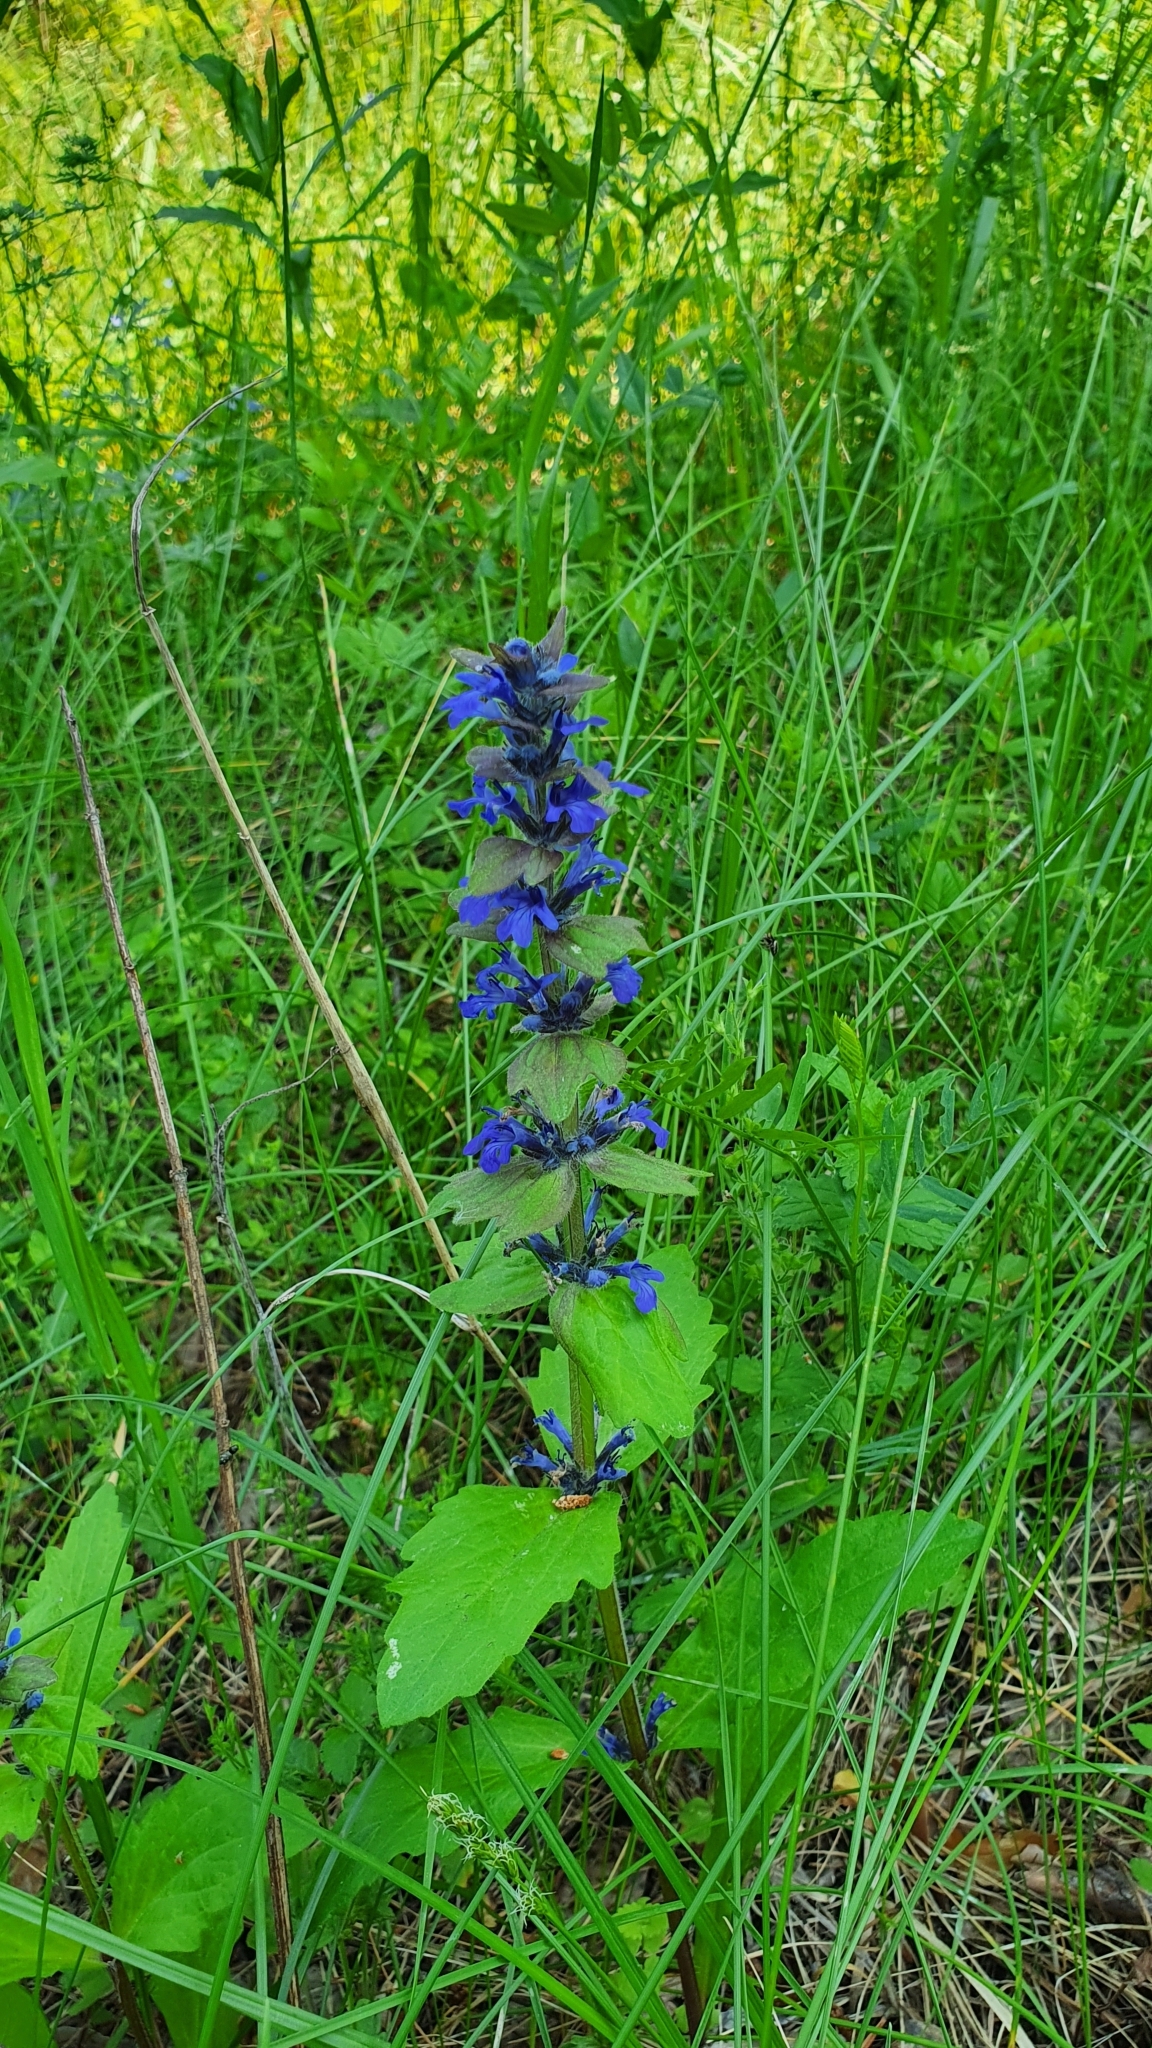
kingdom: Plantae
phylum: Tracheophyta
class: Magnoliopsida
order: Lamiales
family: Lamiaceae
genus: Ajuga
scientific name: Ajuga genevensis
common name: Blue bugle
